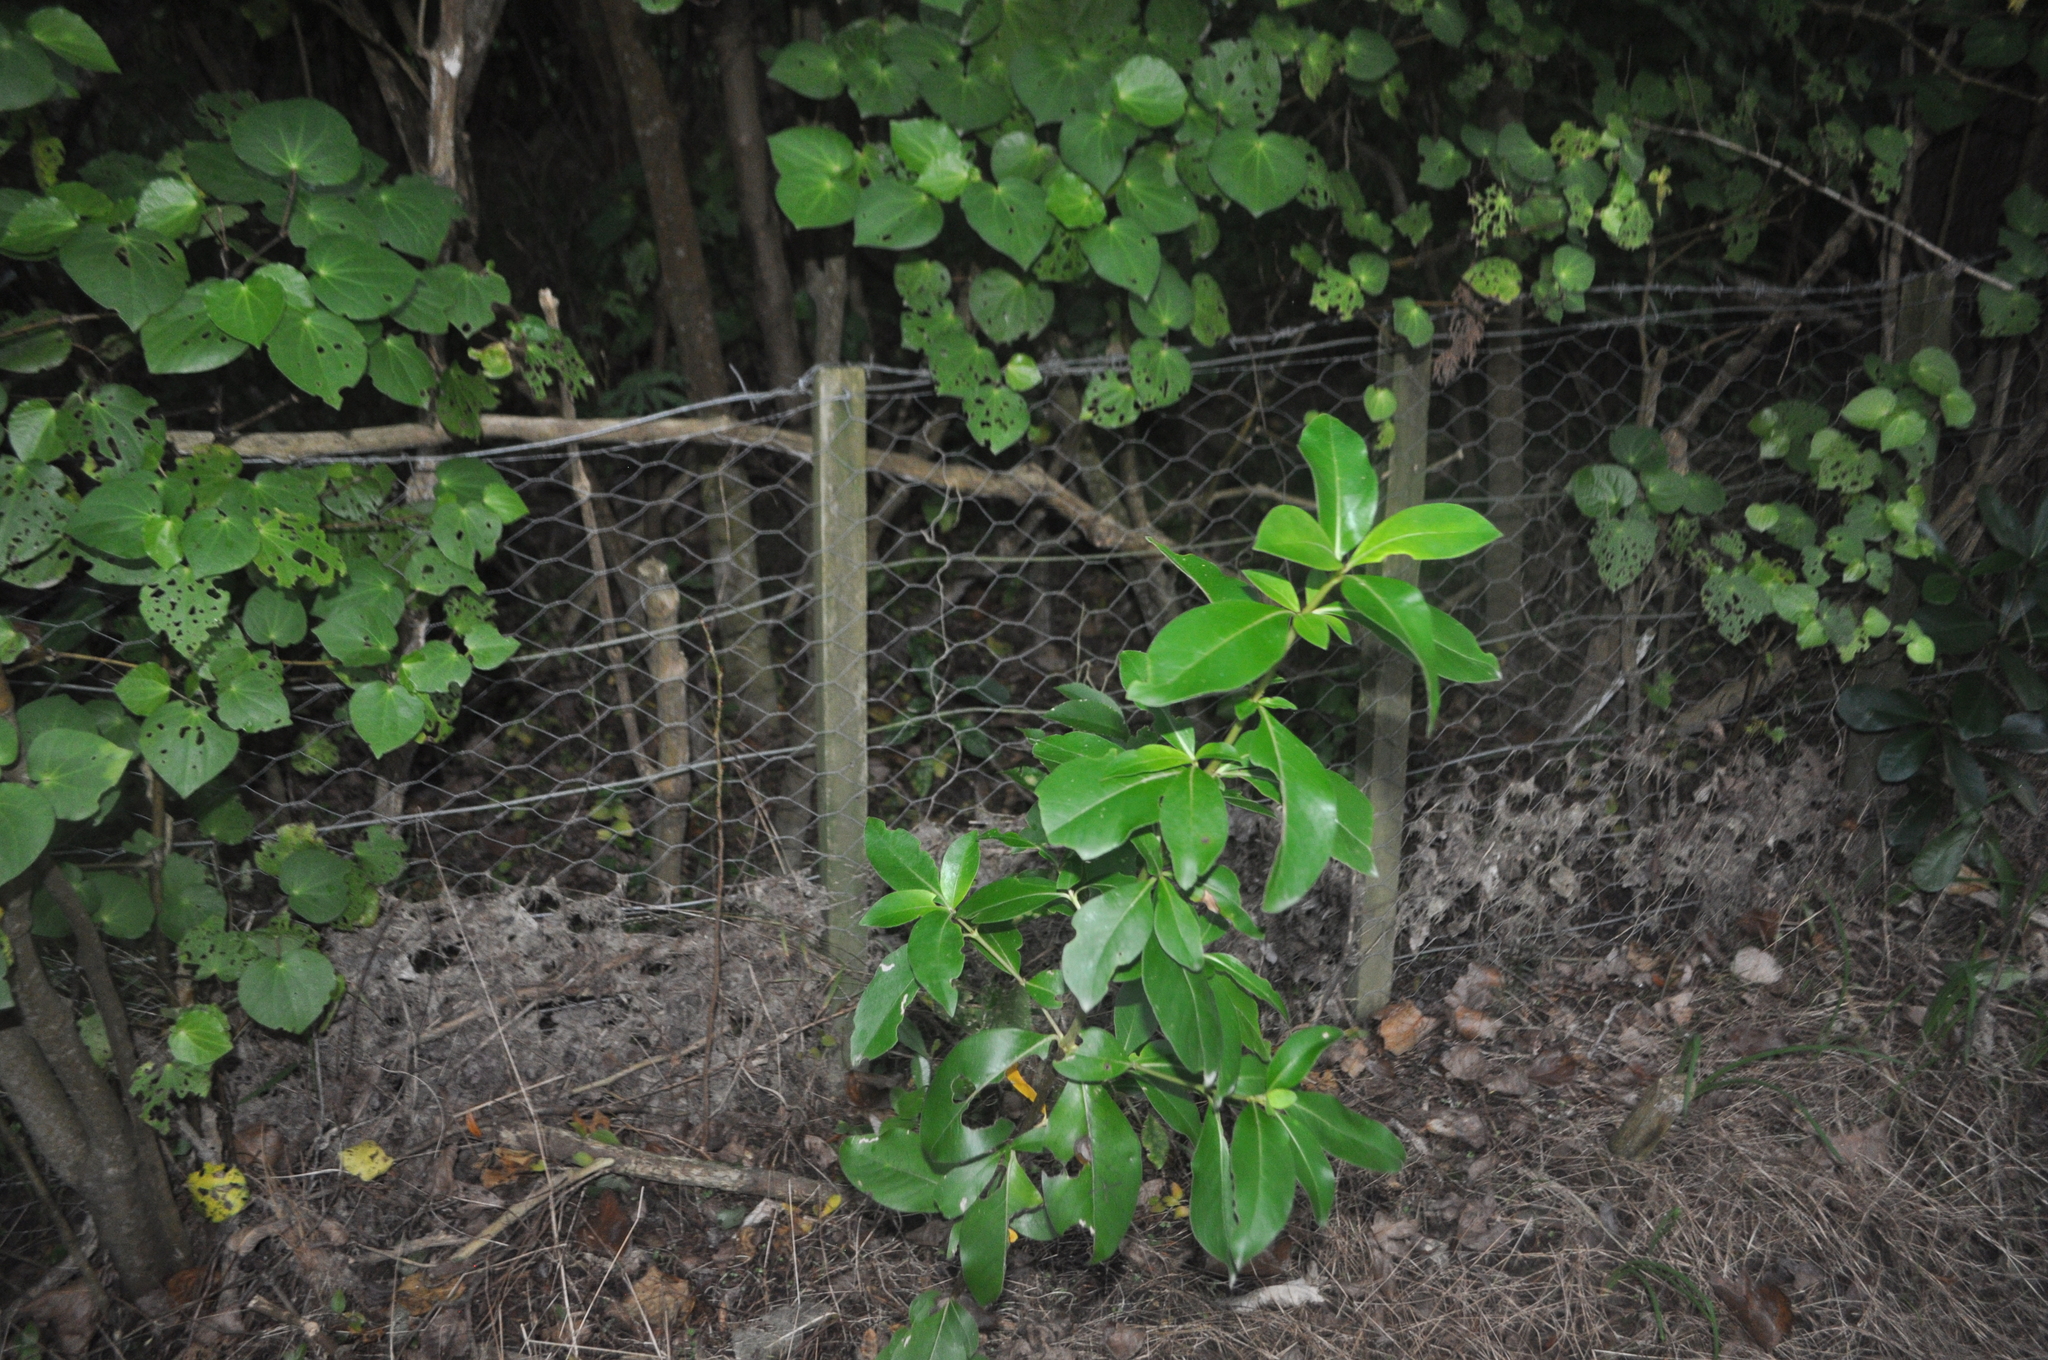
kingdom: Plantae
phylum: Tracheophyta
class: Magnoliopsida
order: Gentianales
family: Rubiaceae
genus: Coprosma
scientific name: Coprosma robusta
